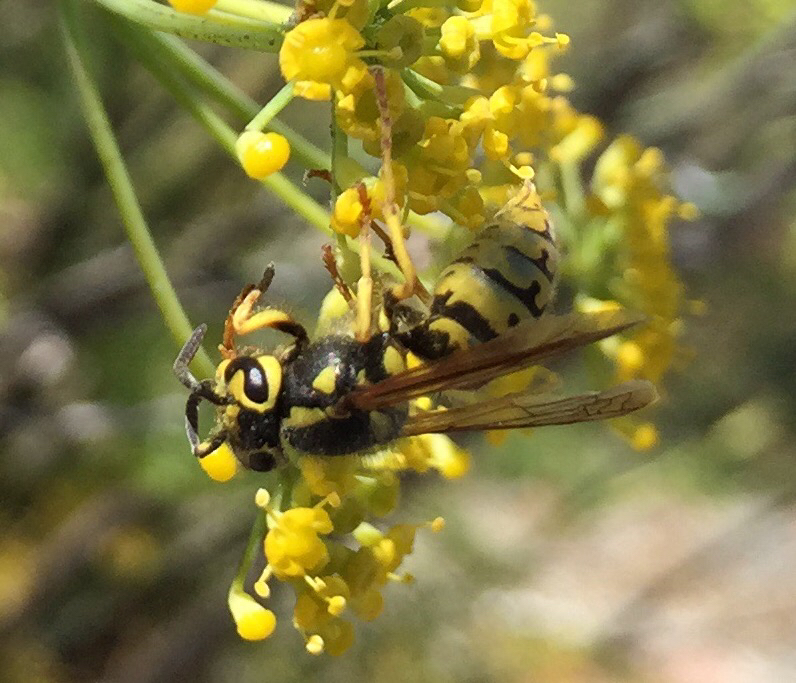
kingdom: Animalia
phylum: Arthropoda
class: Insecta
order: Hymenoptera
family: Vespidae
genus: Vespula
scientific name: Vespula pensylvanica
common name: Western yellowjacket
